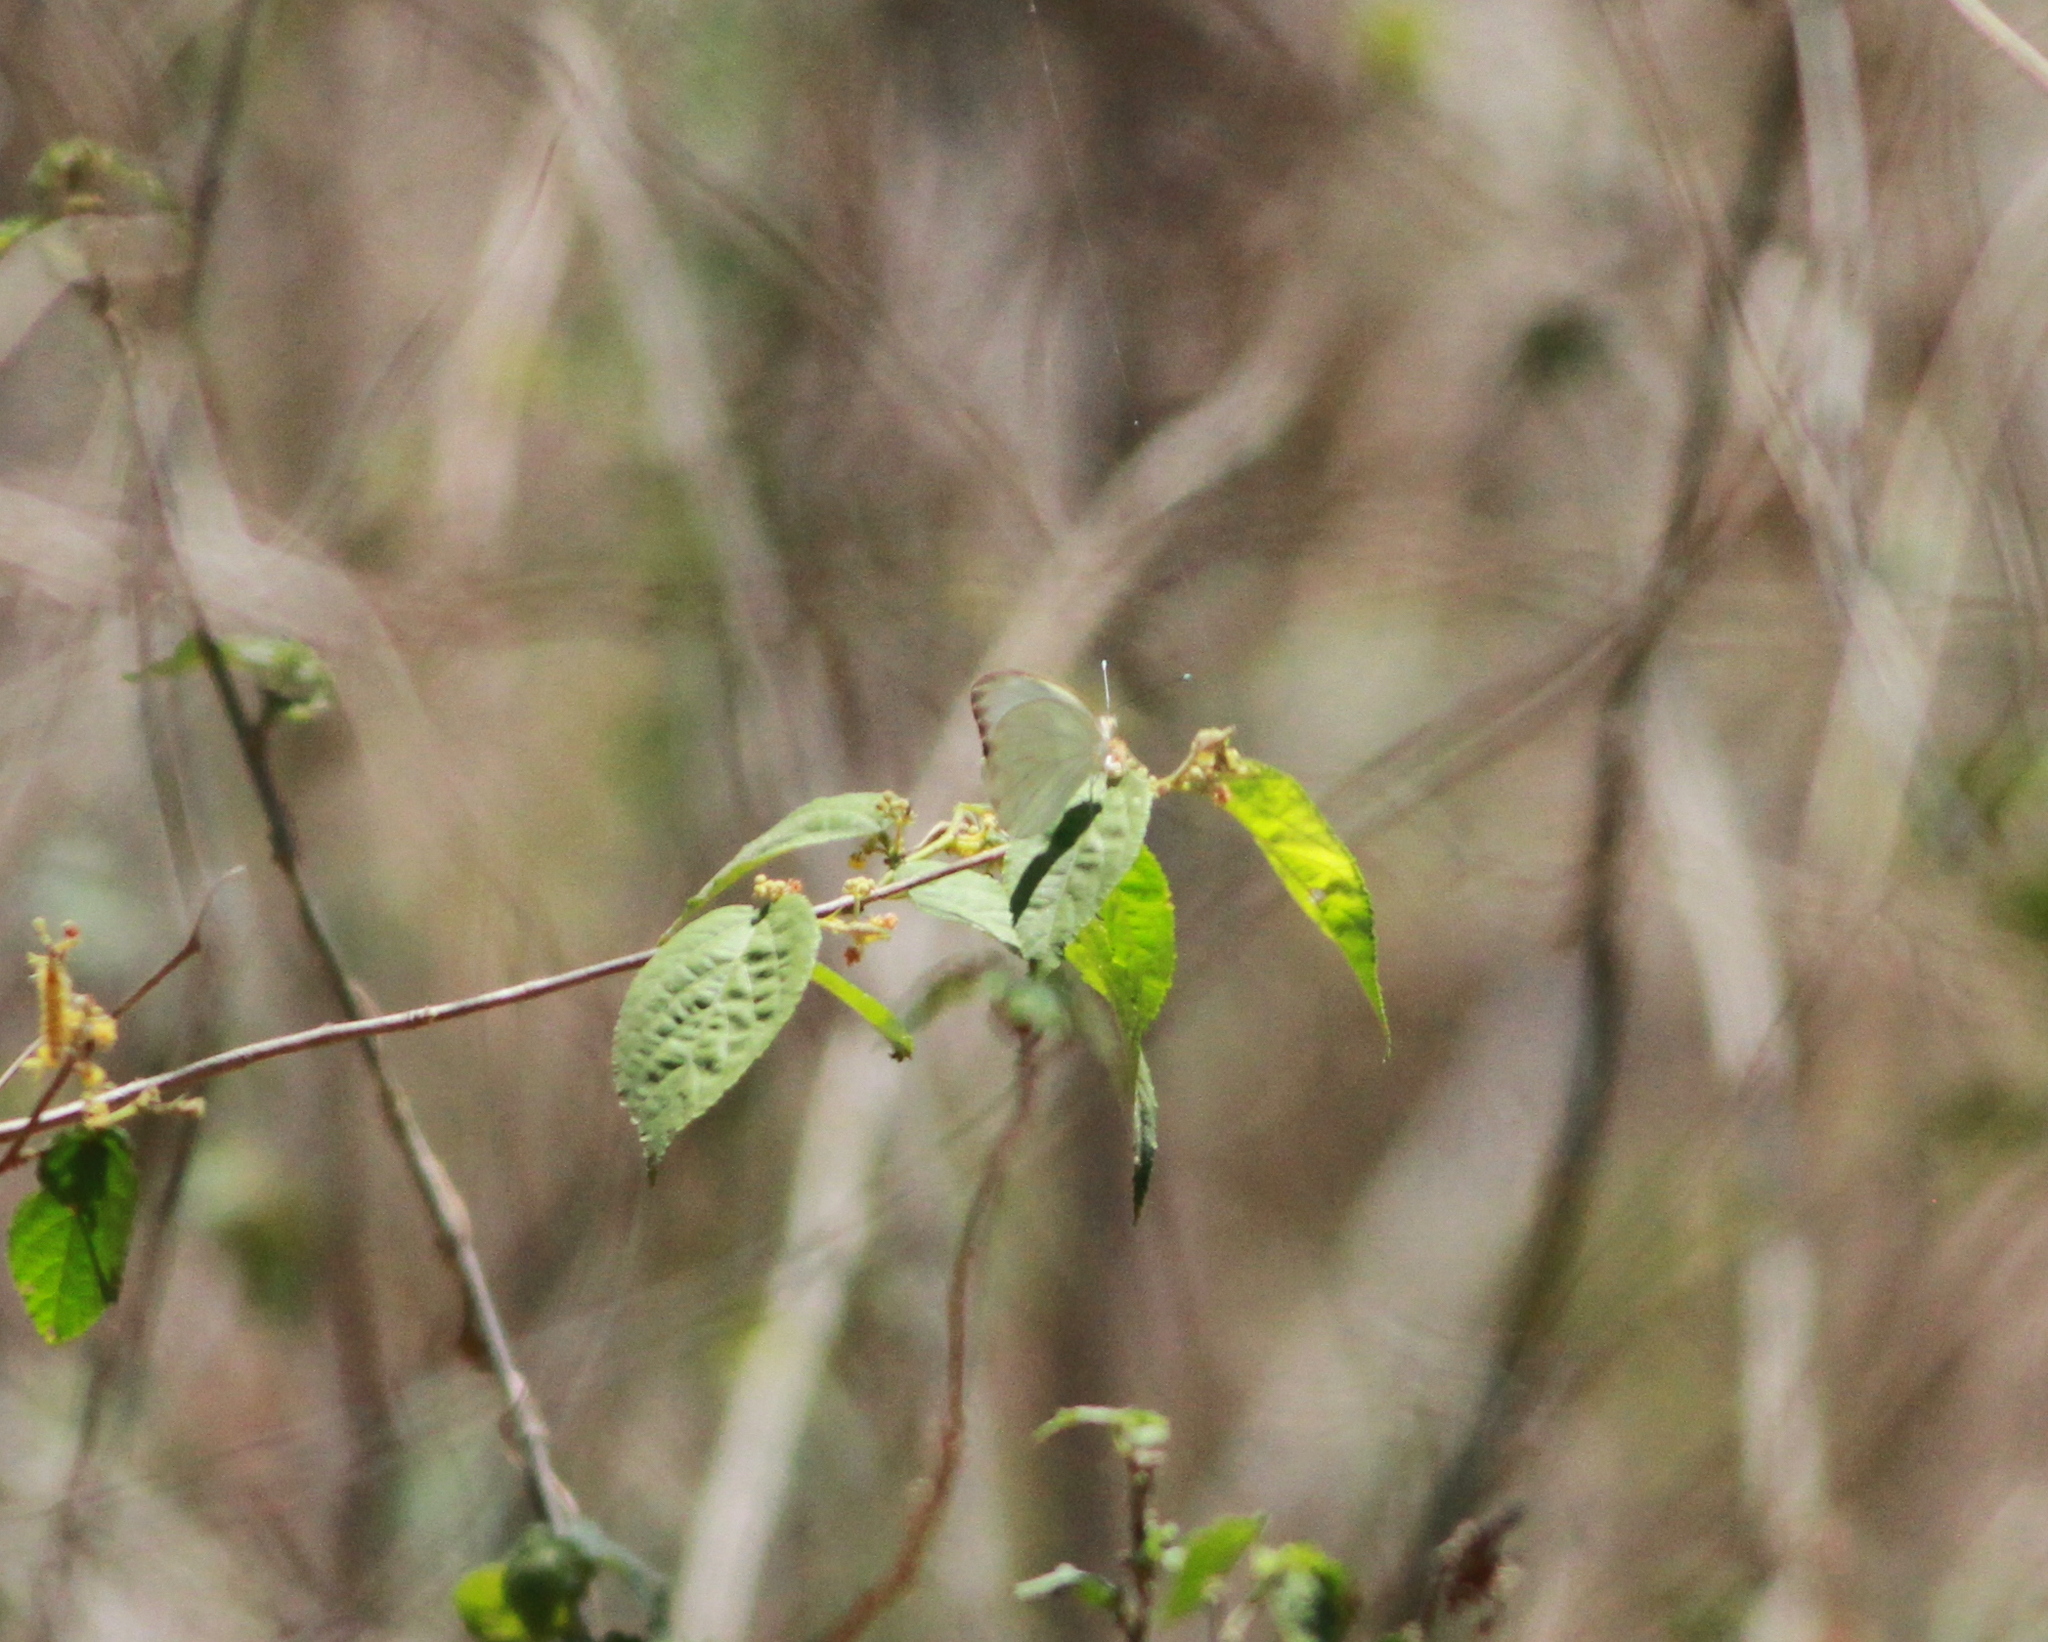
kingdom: Animalia
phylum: Arthropoda
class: Insecta
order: Lepidoptera
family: Pieridae
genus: Ascia
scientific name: Ascia monuste
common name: Great southern white
